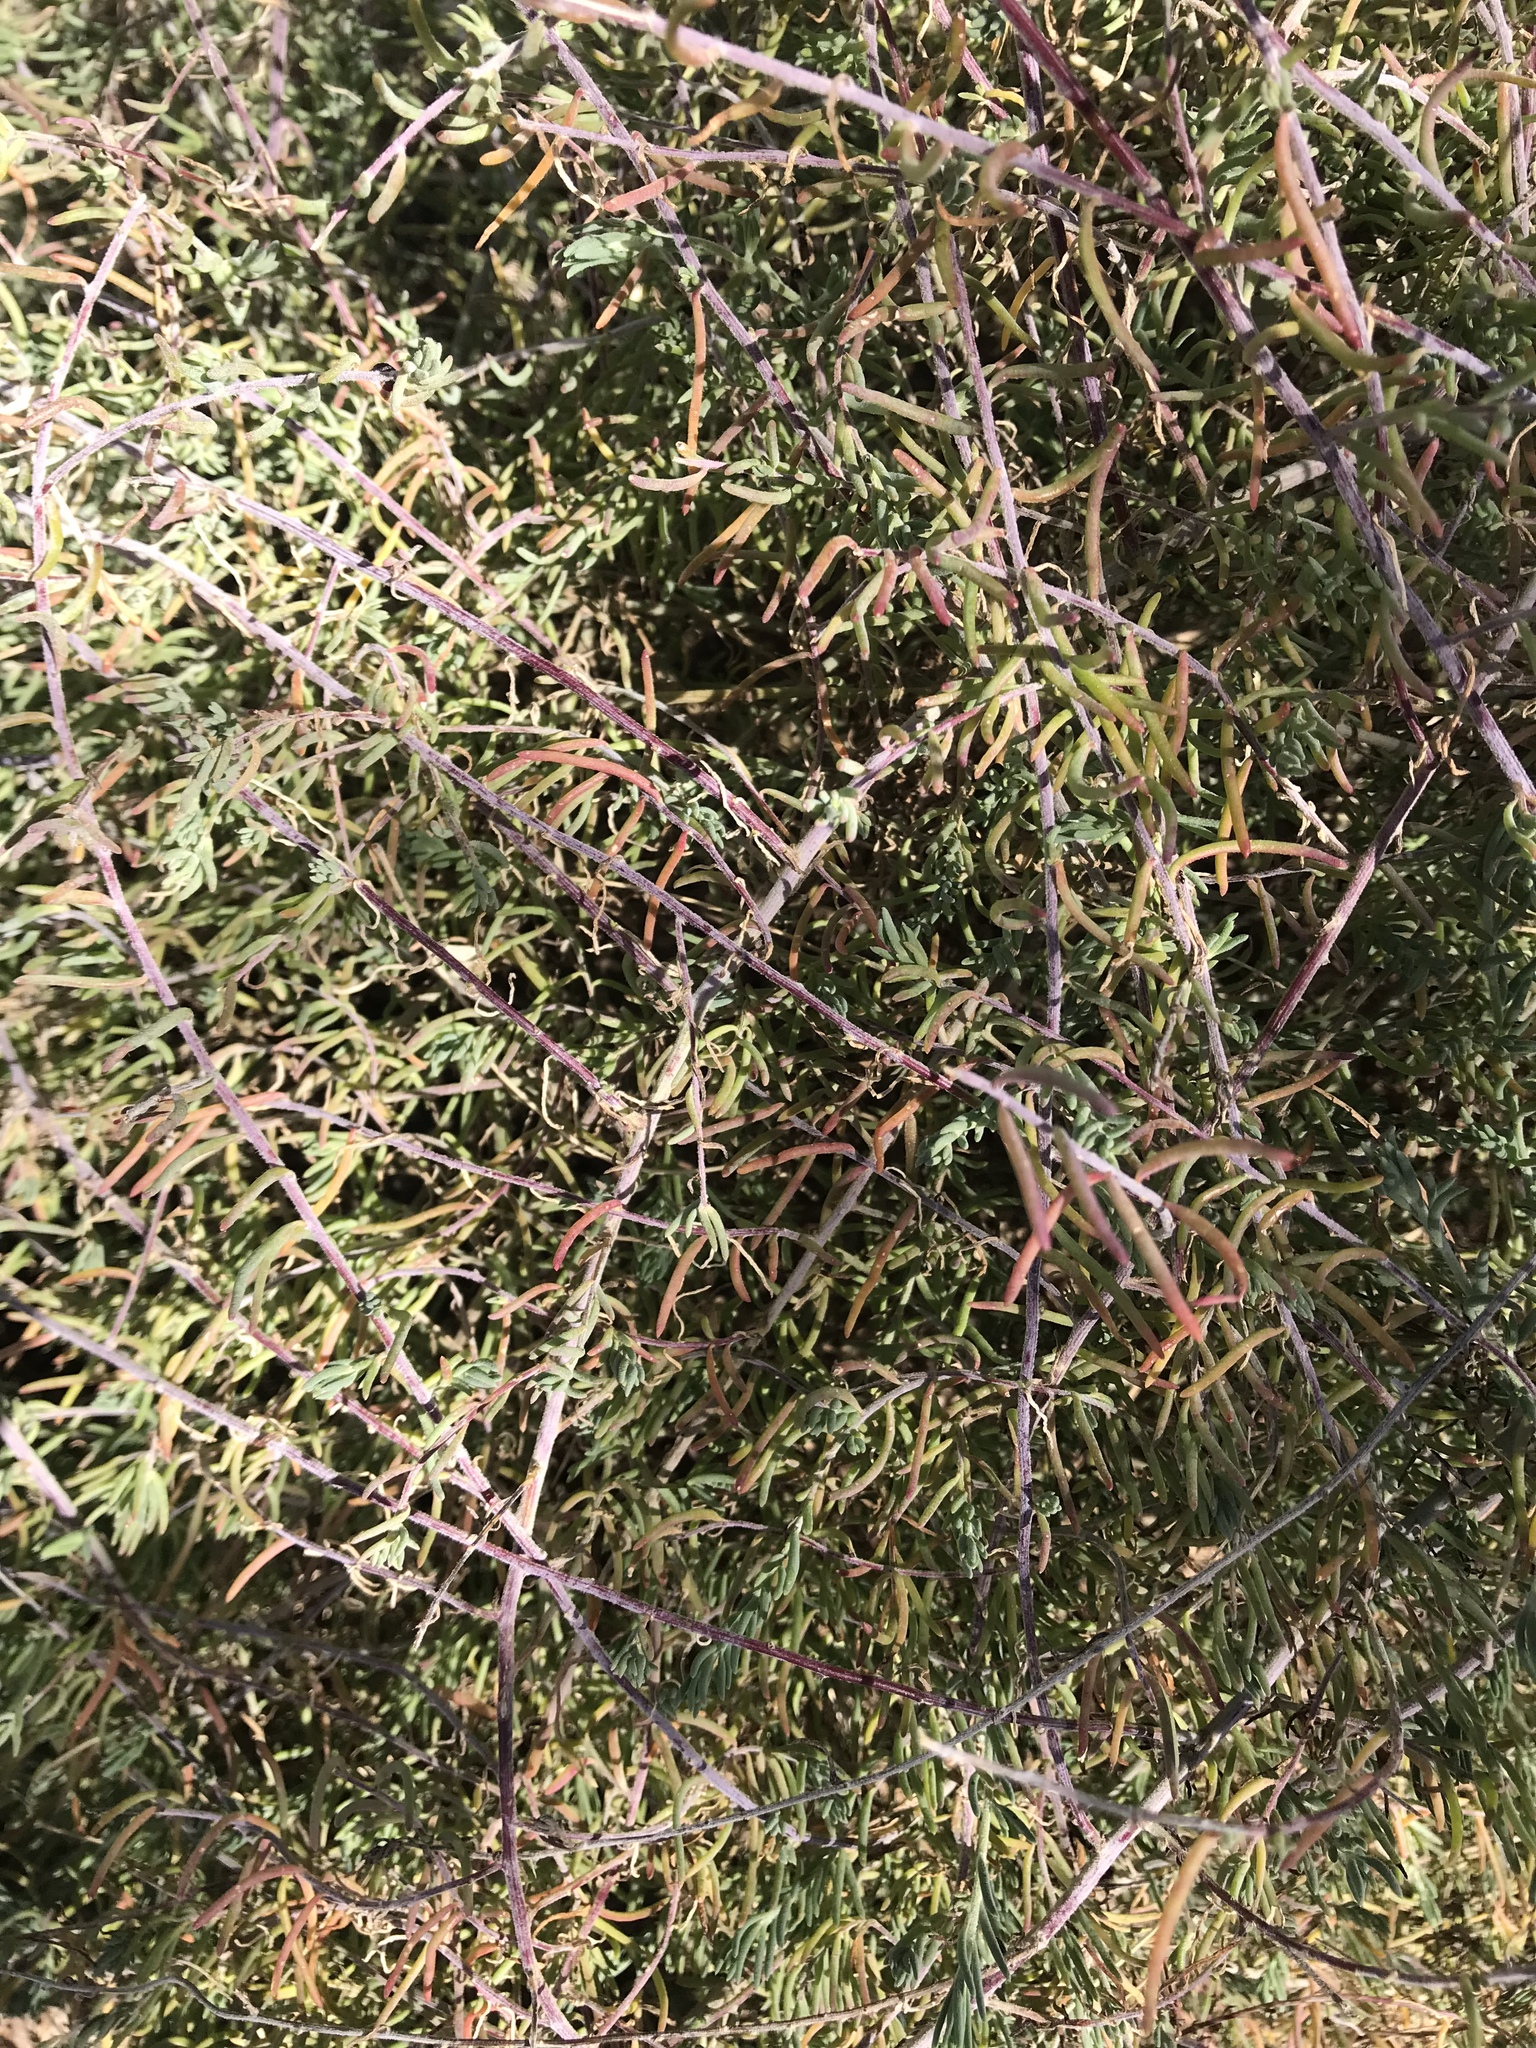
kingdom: Plantae
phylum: Tracheophyta
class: Magnoliopsida
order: Caryophyllales
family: Amaranthaceae
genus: Suaeda
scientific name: Suaeda nigra
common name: Bush seepweed
